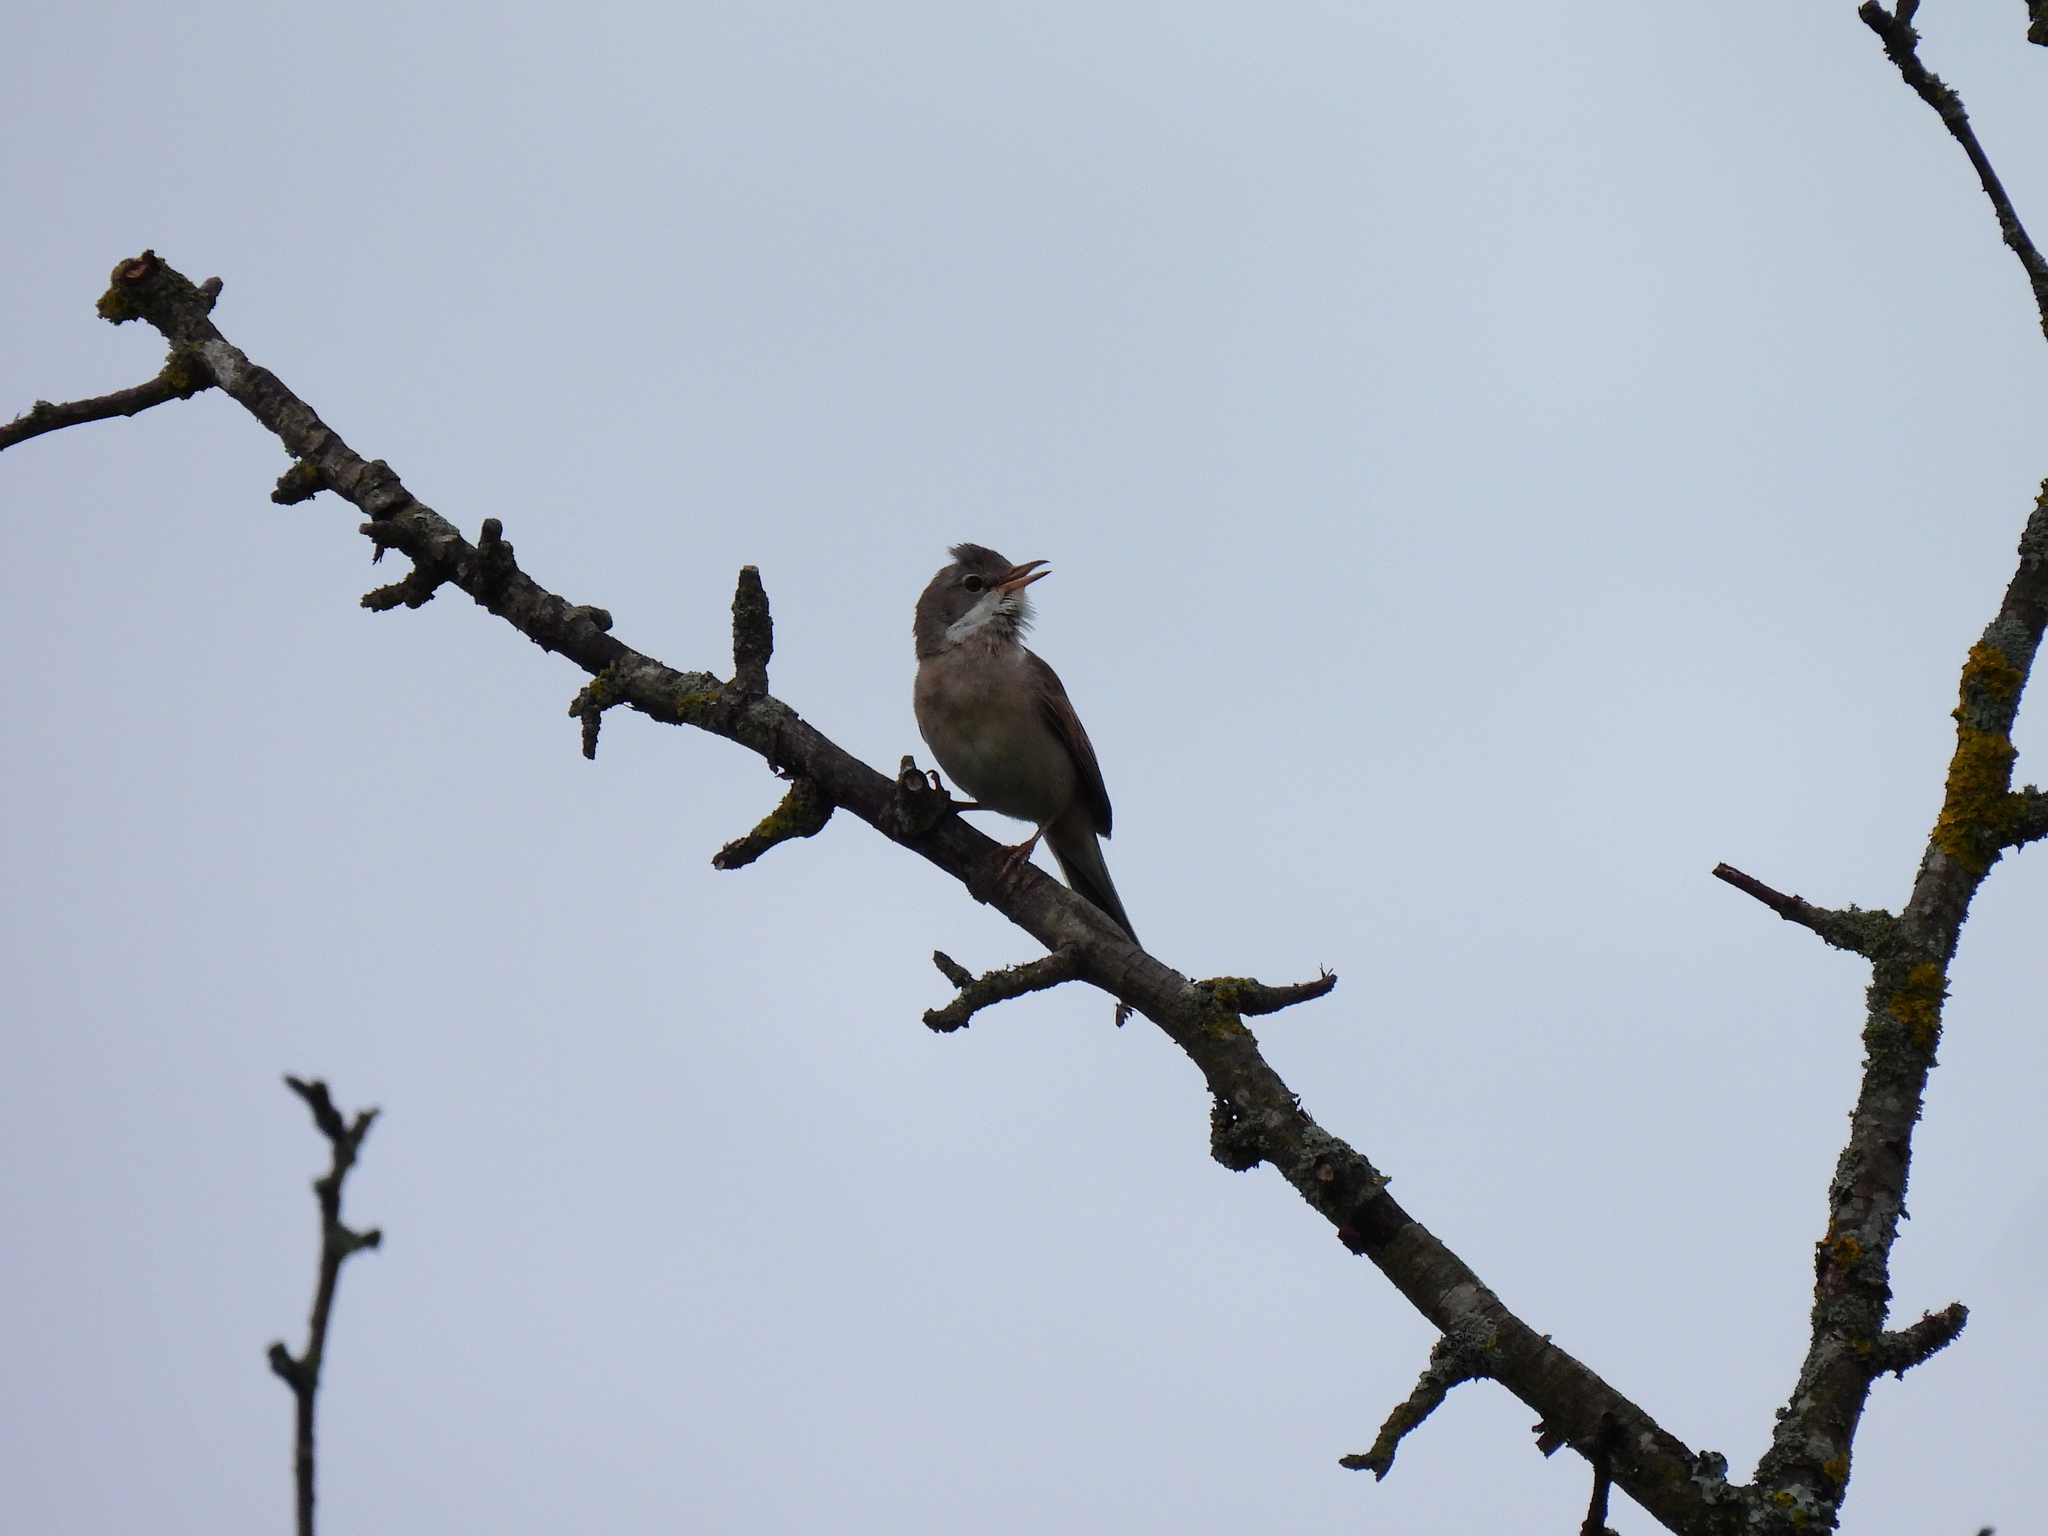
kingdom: Animalia
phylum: Chordata
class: Aves
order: Passeriformes
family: Sylviidae
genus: Sylvia
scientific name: Sylvia communis
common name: Common whitethroat
